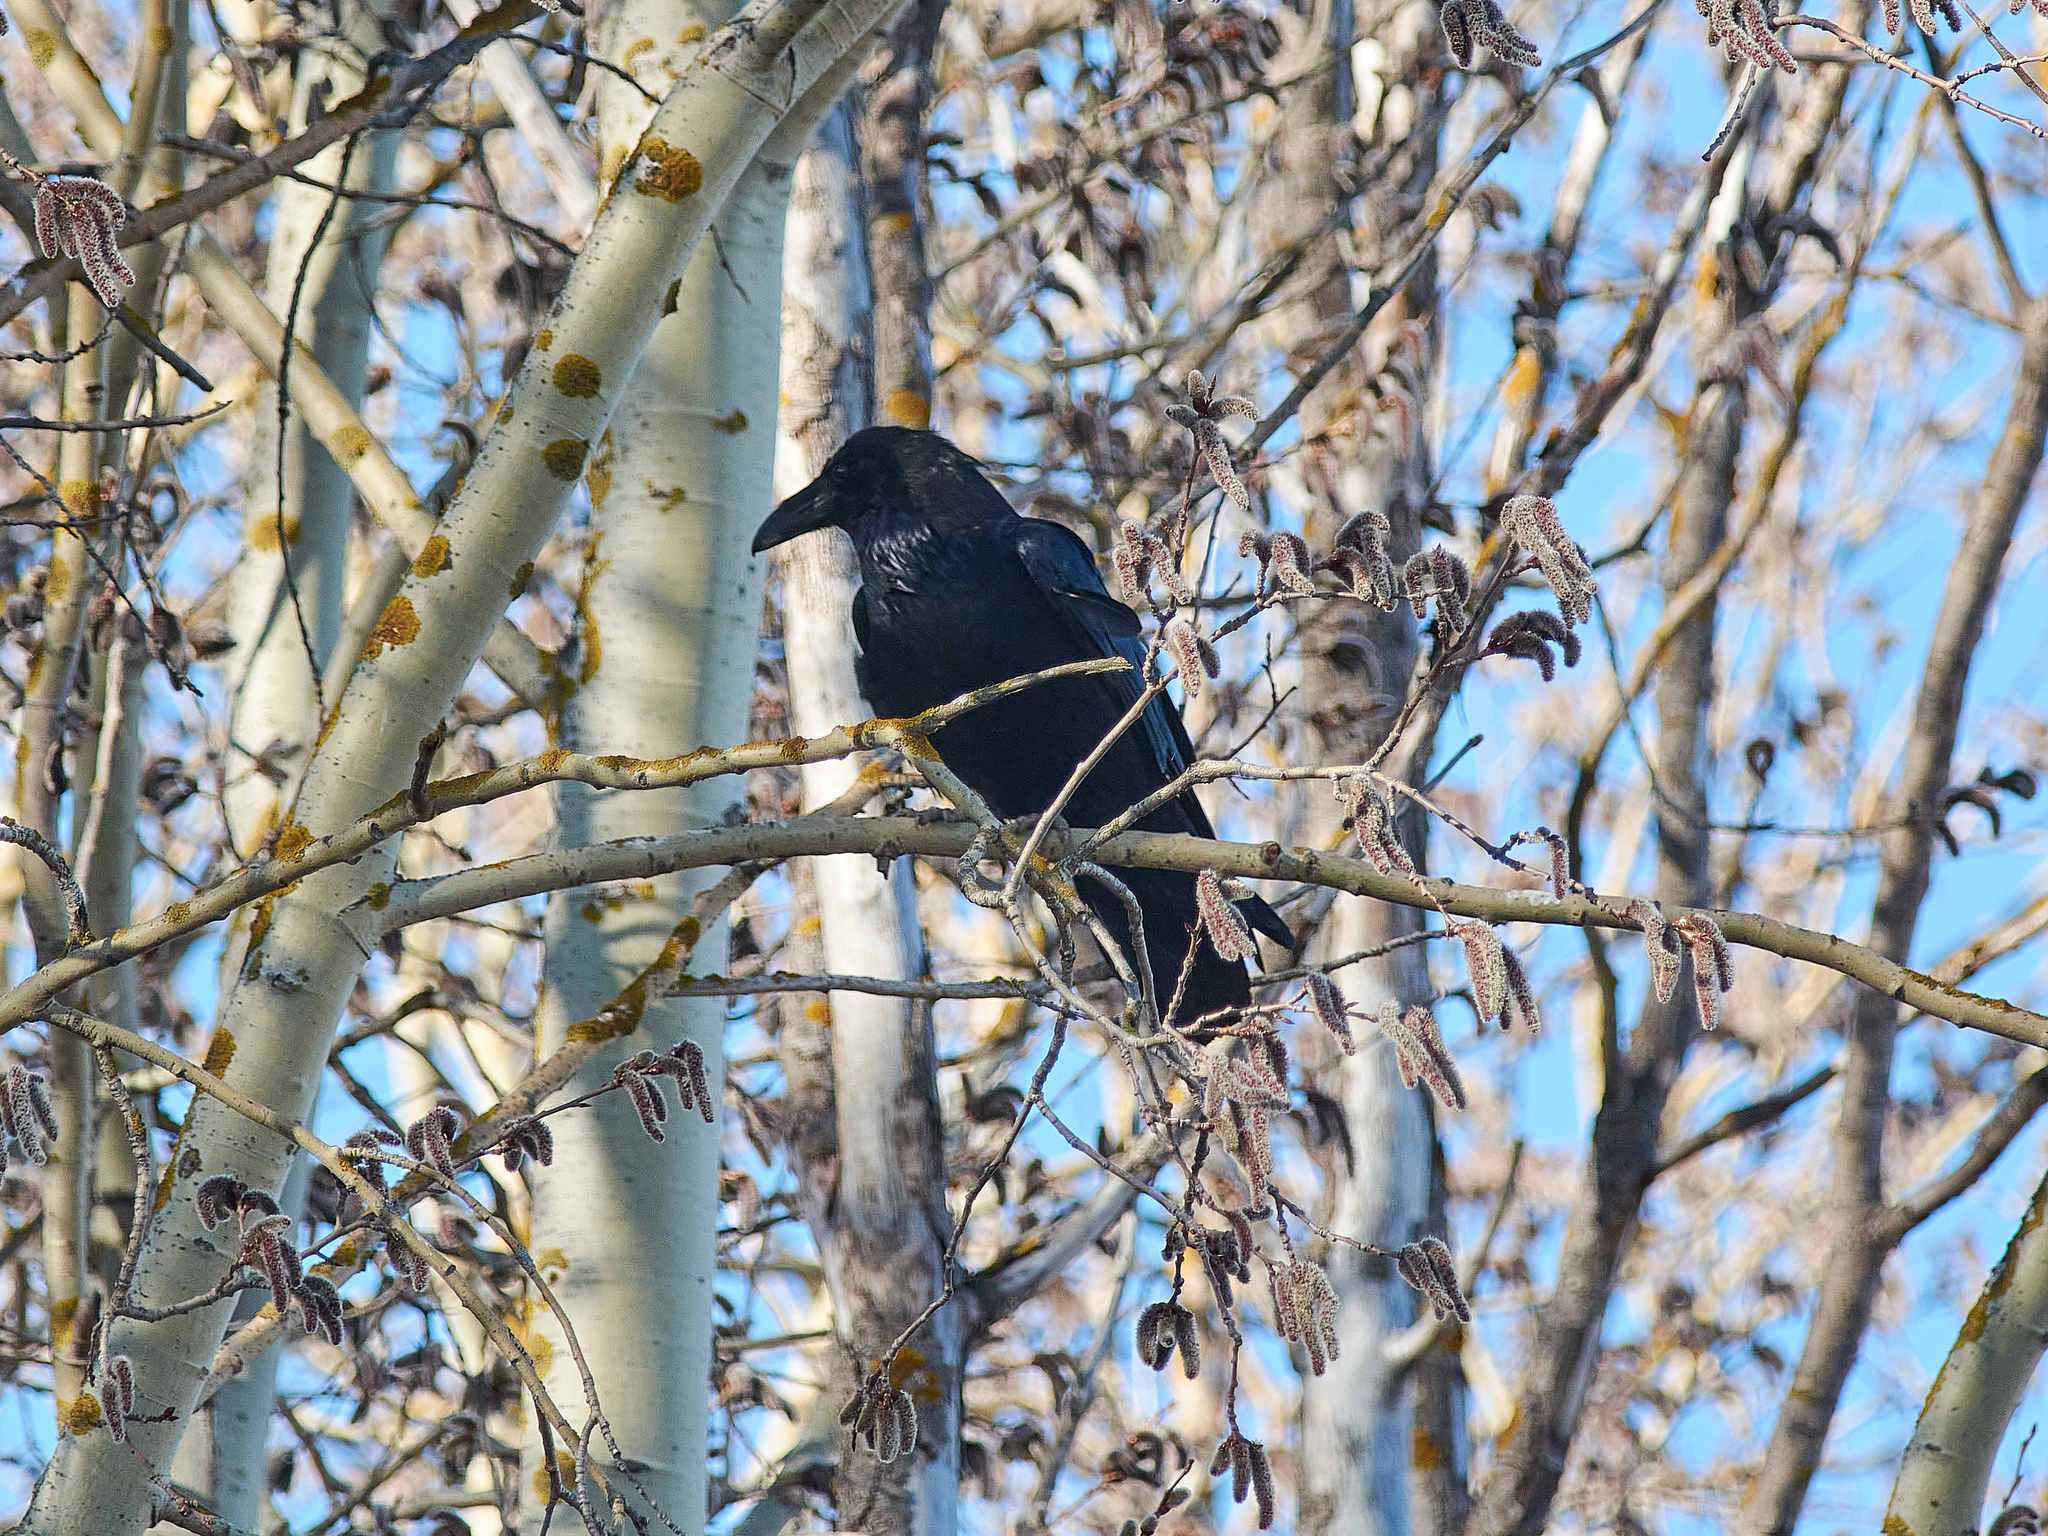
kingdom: Animalia
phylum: Chordata
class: Aves
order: Passeriformes
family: Corvidae
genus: Corvus
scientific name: Corvus corax
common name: Common raven
